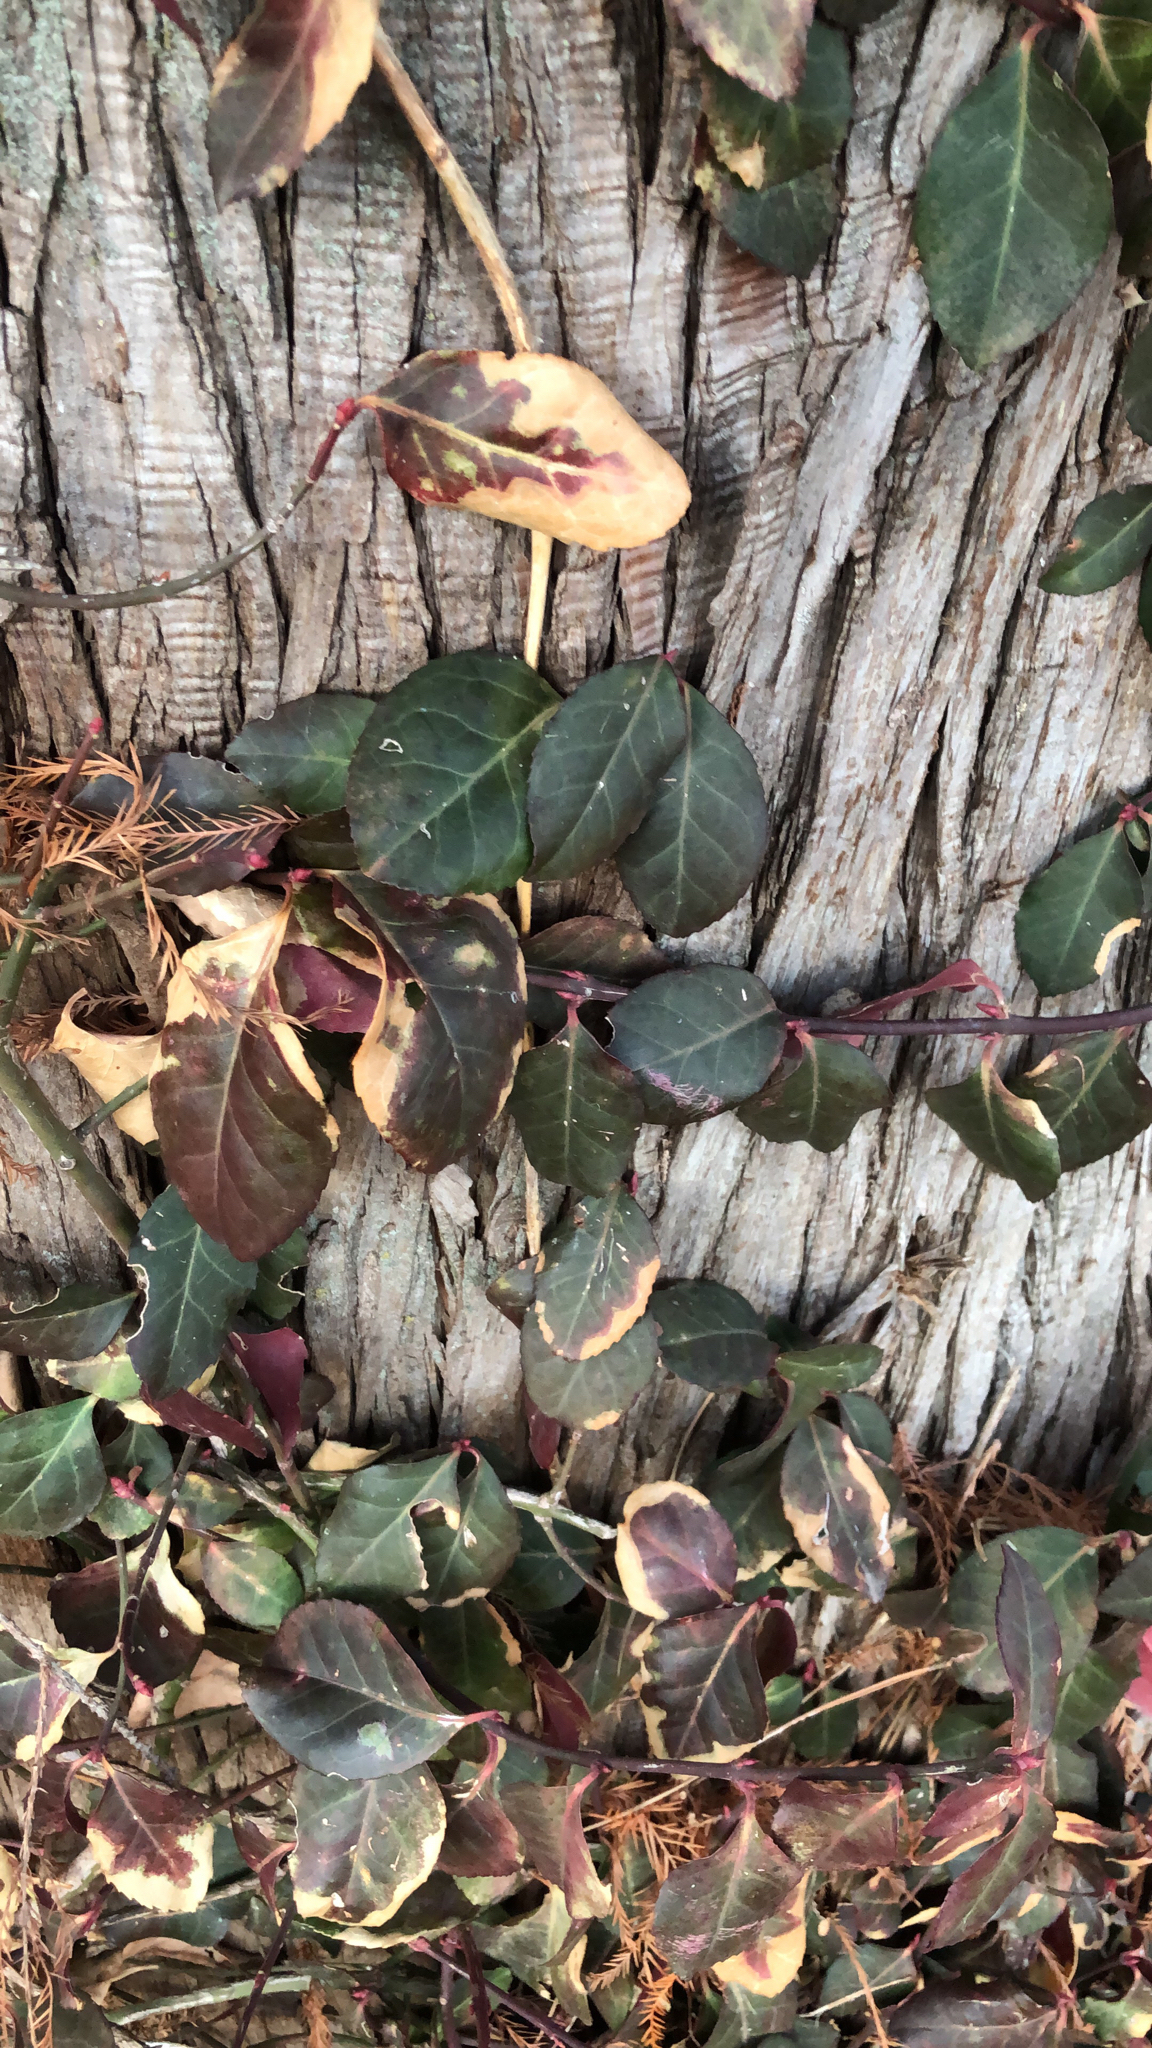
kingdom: Plantae
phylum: Tracheophyta
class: Magnoliopsida
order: Celastrales
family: Celastraceae
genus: Euonymus
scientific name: Euonymus fortunei
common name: Climbing euonymus
